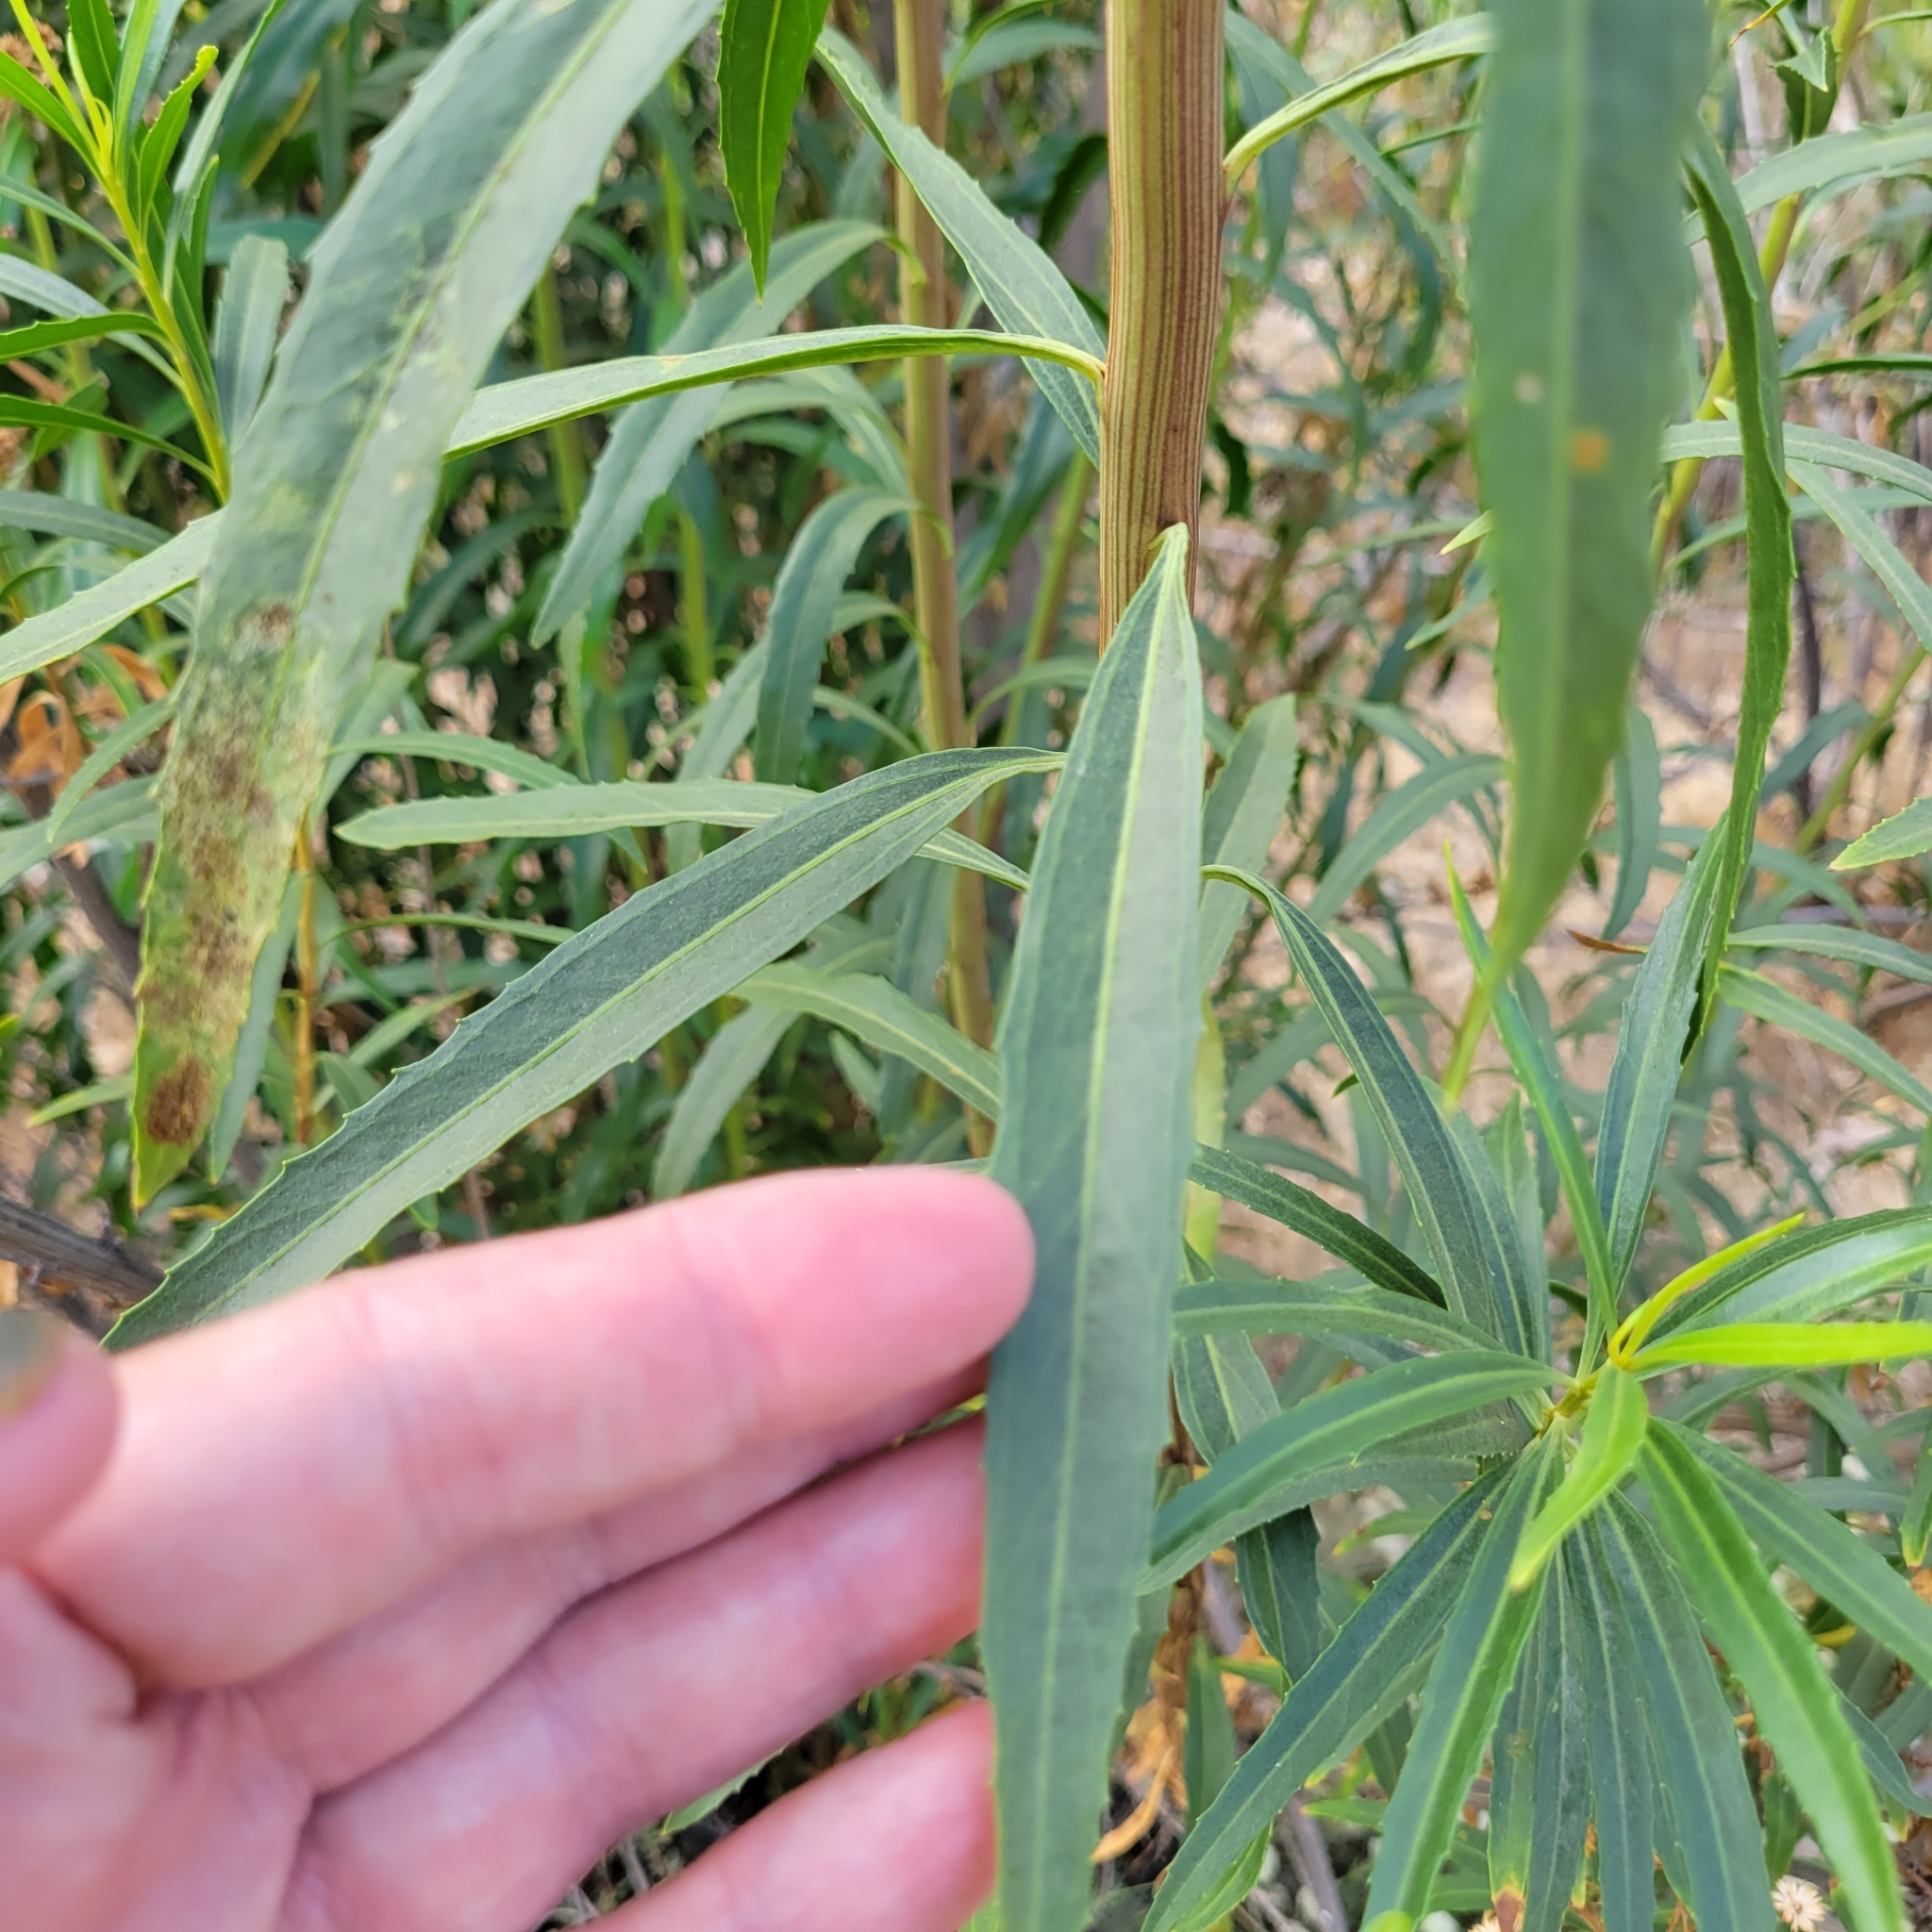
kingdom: Plantae
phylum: Tracheophyta
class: Magnoliopsida
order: Asterales
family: Asteraceae
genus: Baccharis
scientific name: Baccharis salicifolia
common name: Sticky baccharis
